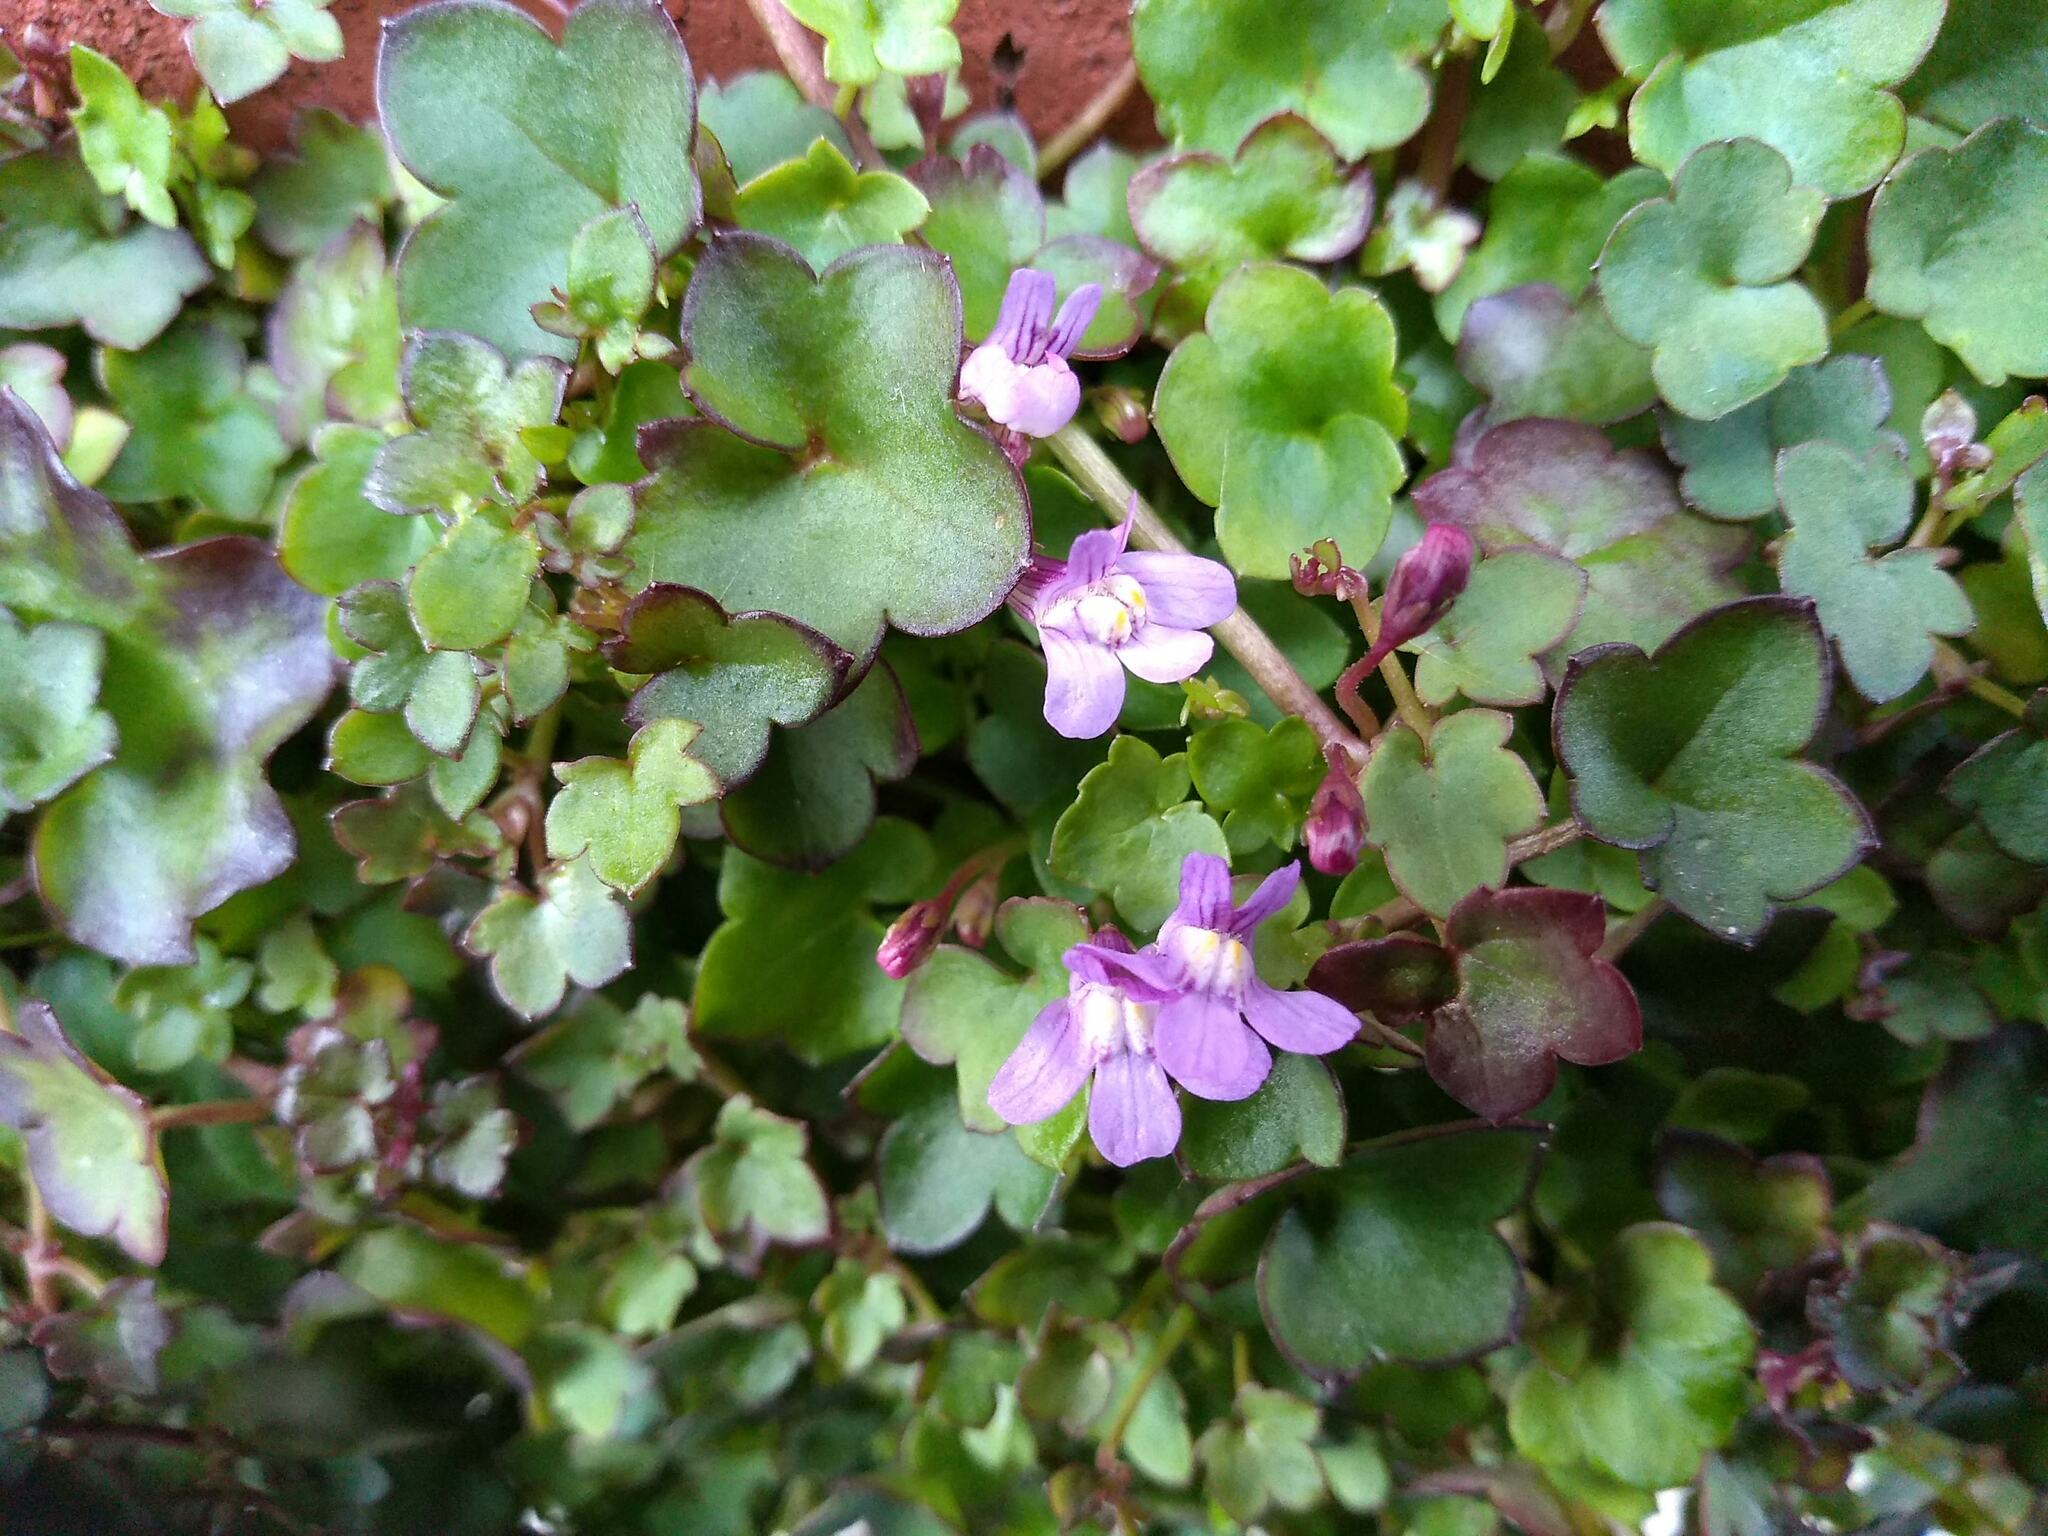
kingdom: Plantae
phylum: Tracheophyta
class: Magnoliopsida
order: Lamiales
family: Plantaginaceae
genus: Cymbalaria
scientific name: Cymbalaria muralis
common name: Ivy-leaved toadflax
